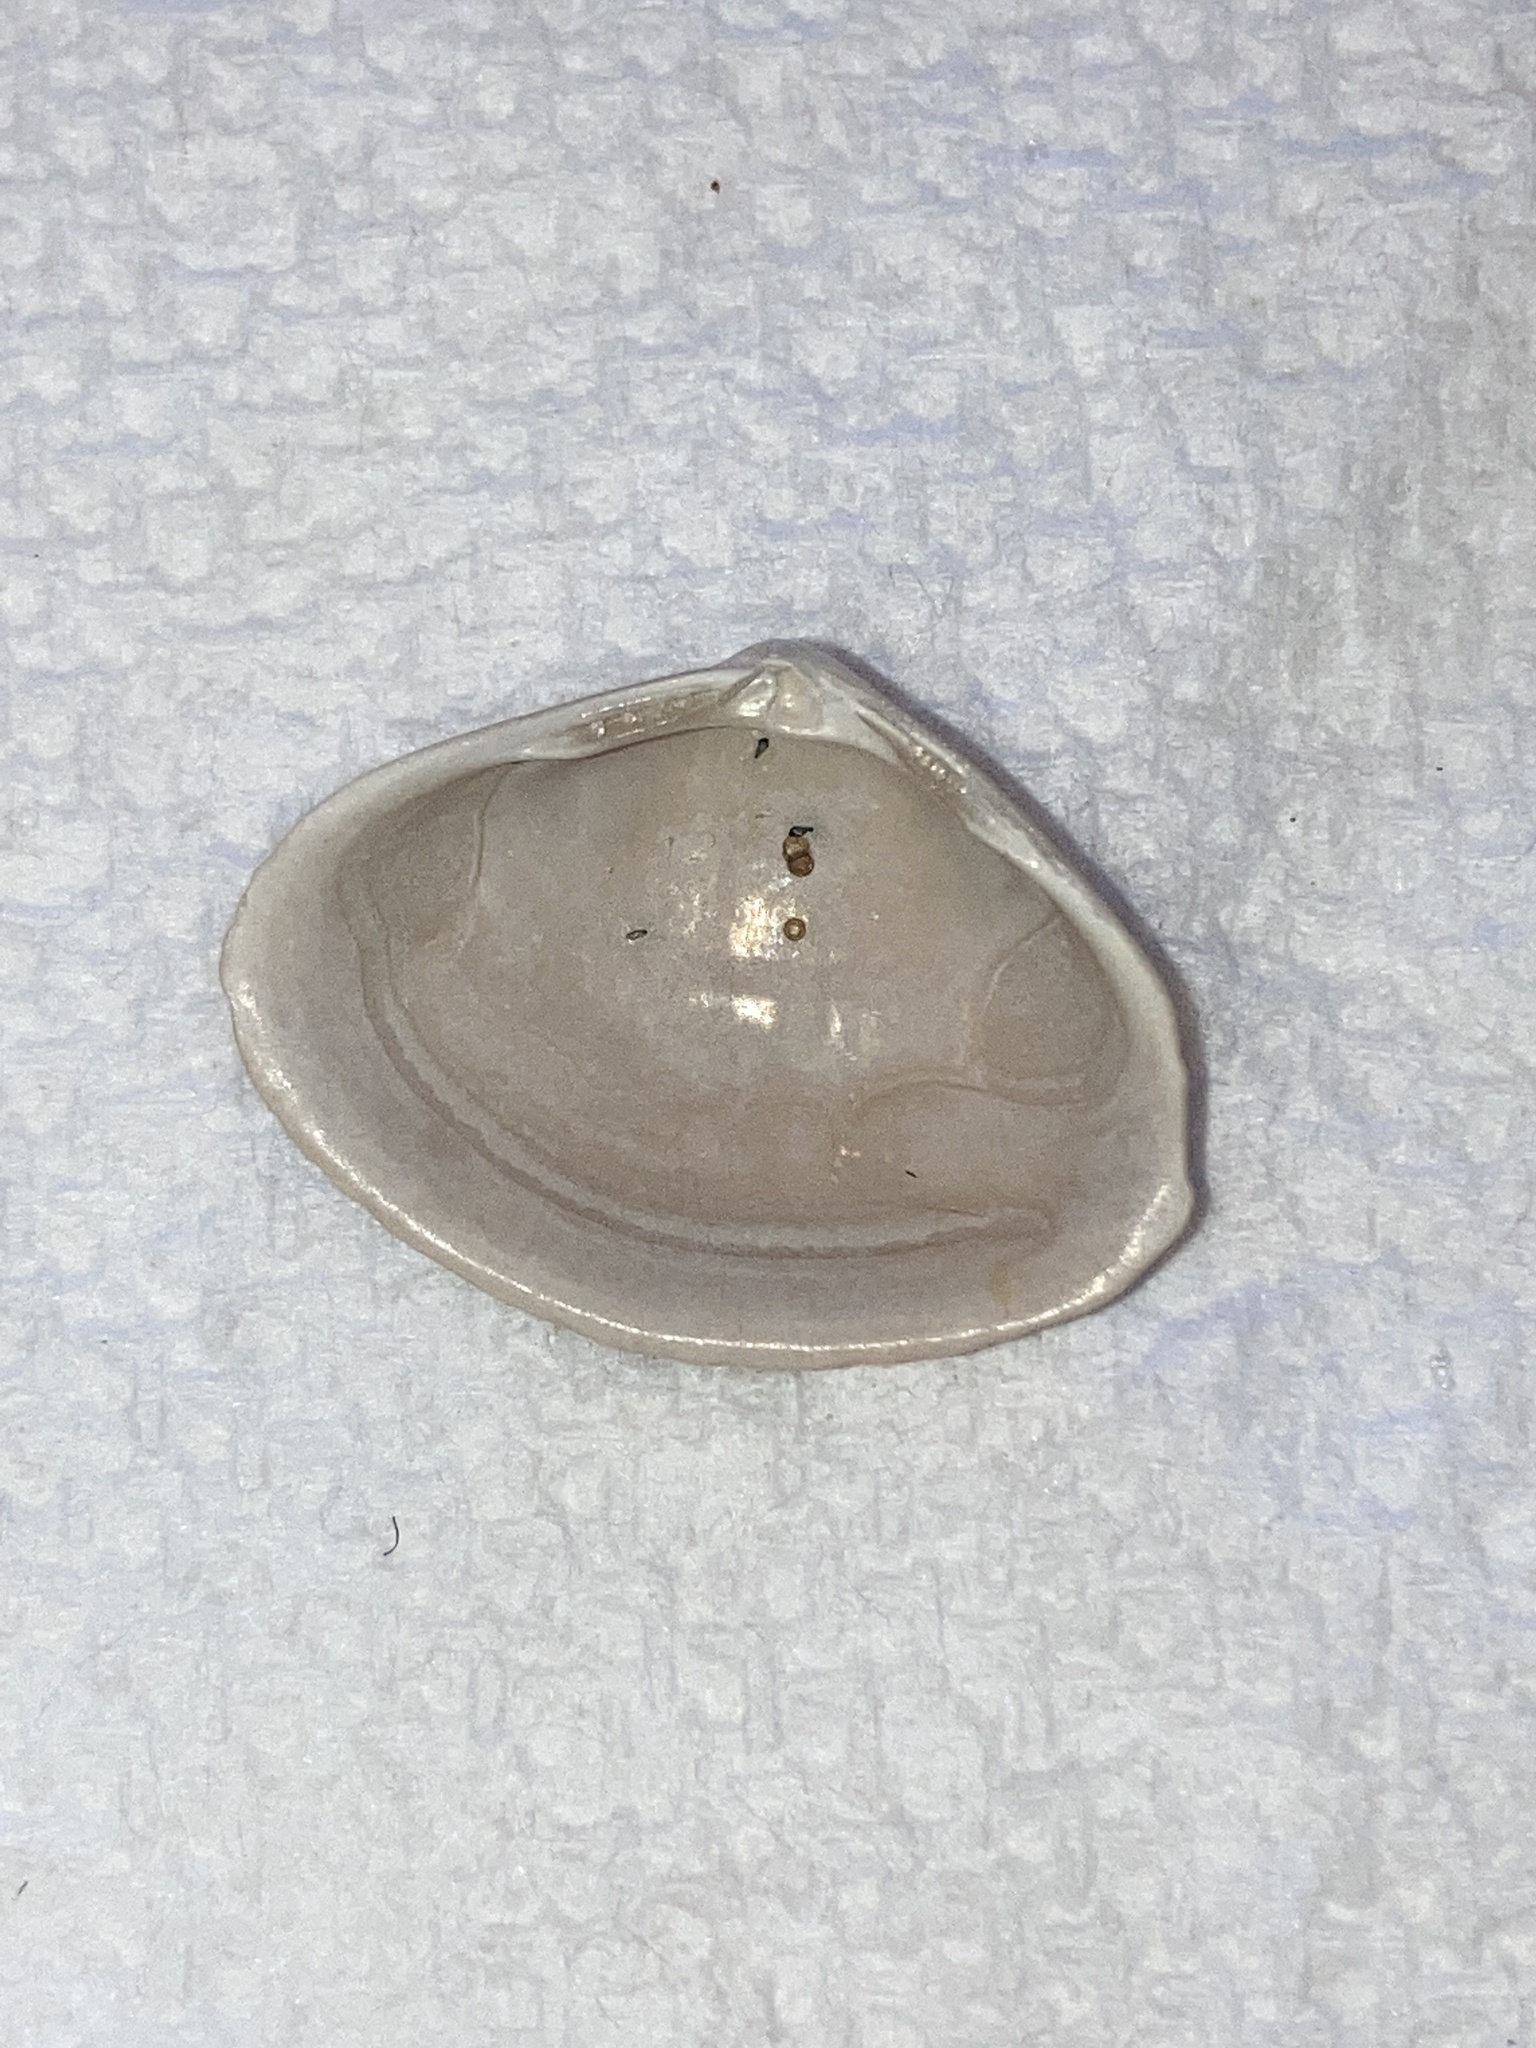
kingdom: Animalia
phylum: Mollusca
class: Bivalvia
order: Venerida
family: Mactridae
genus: Spisula
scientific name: Spisula raveneli
